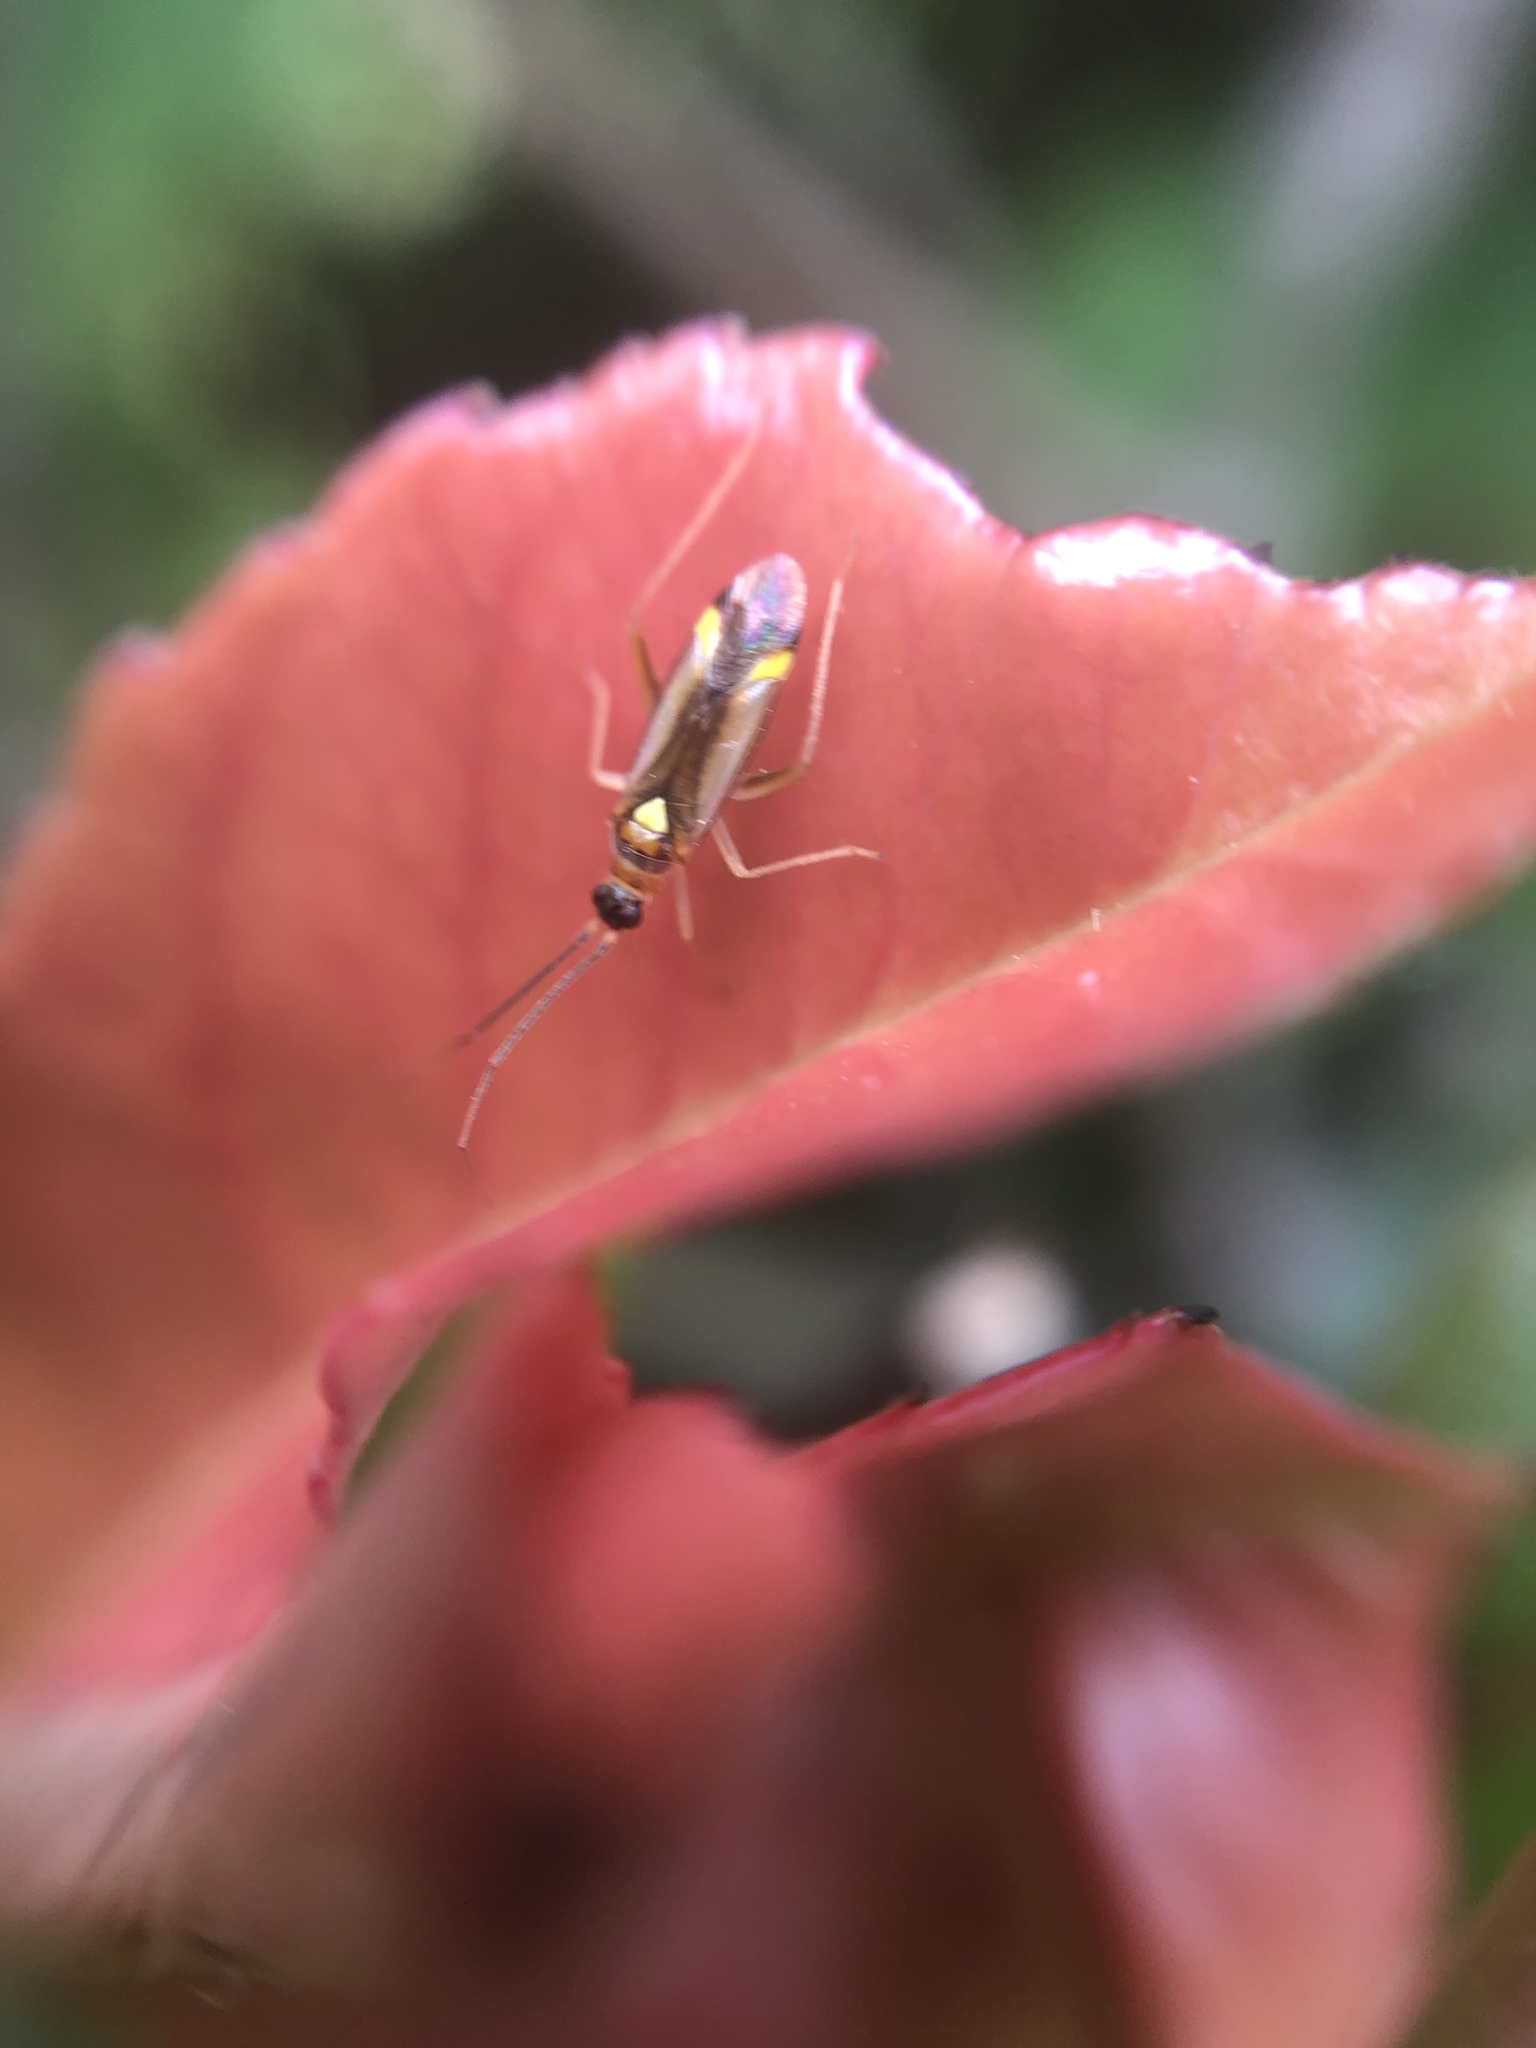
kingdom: Animalia
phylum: Arthropoda
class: Insecta
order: Hemiptera
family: Miridae
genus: Campyloneura
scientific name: Campyloneura virgula
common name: Predatory bug
